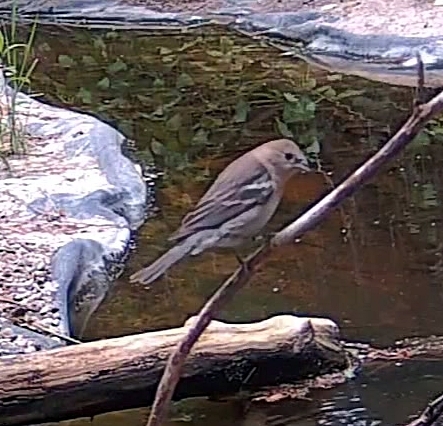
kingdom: Animalia
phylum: Chordata
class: Aves
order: Passeriformes
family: Cardinalidae
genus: Passerina
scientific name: Passerina amoena
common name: Lazuli bunting
